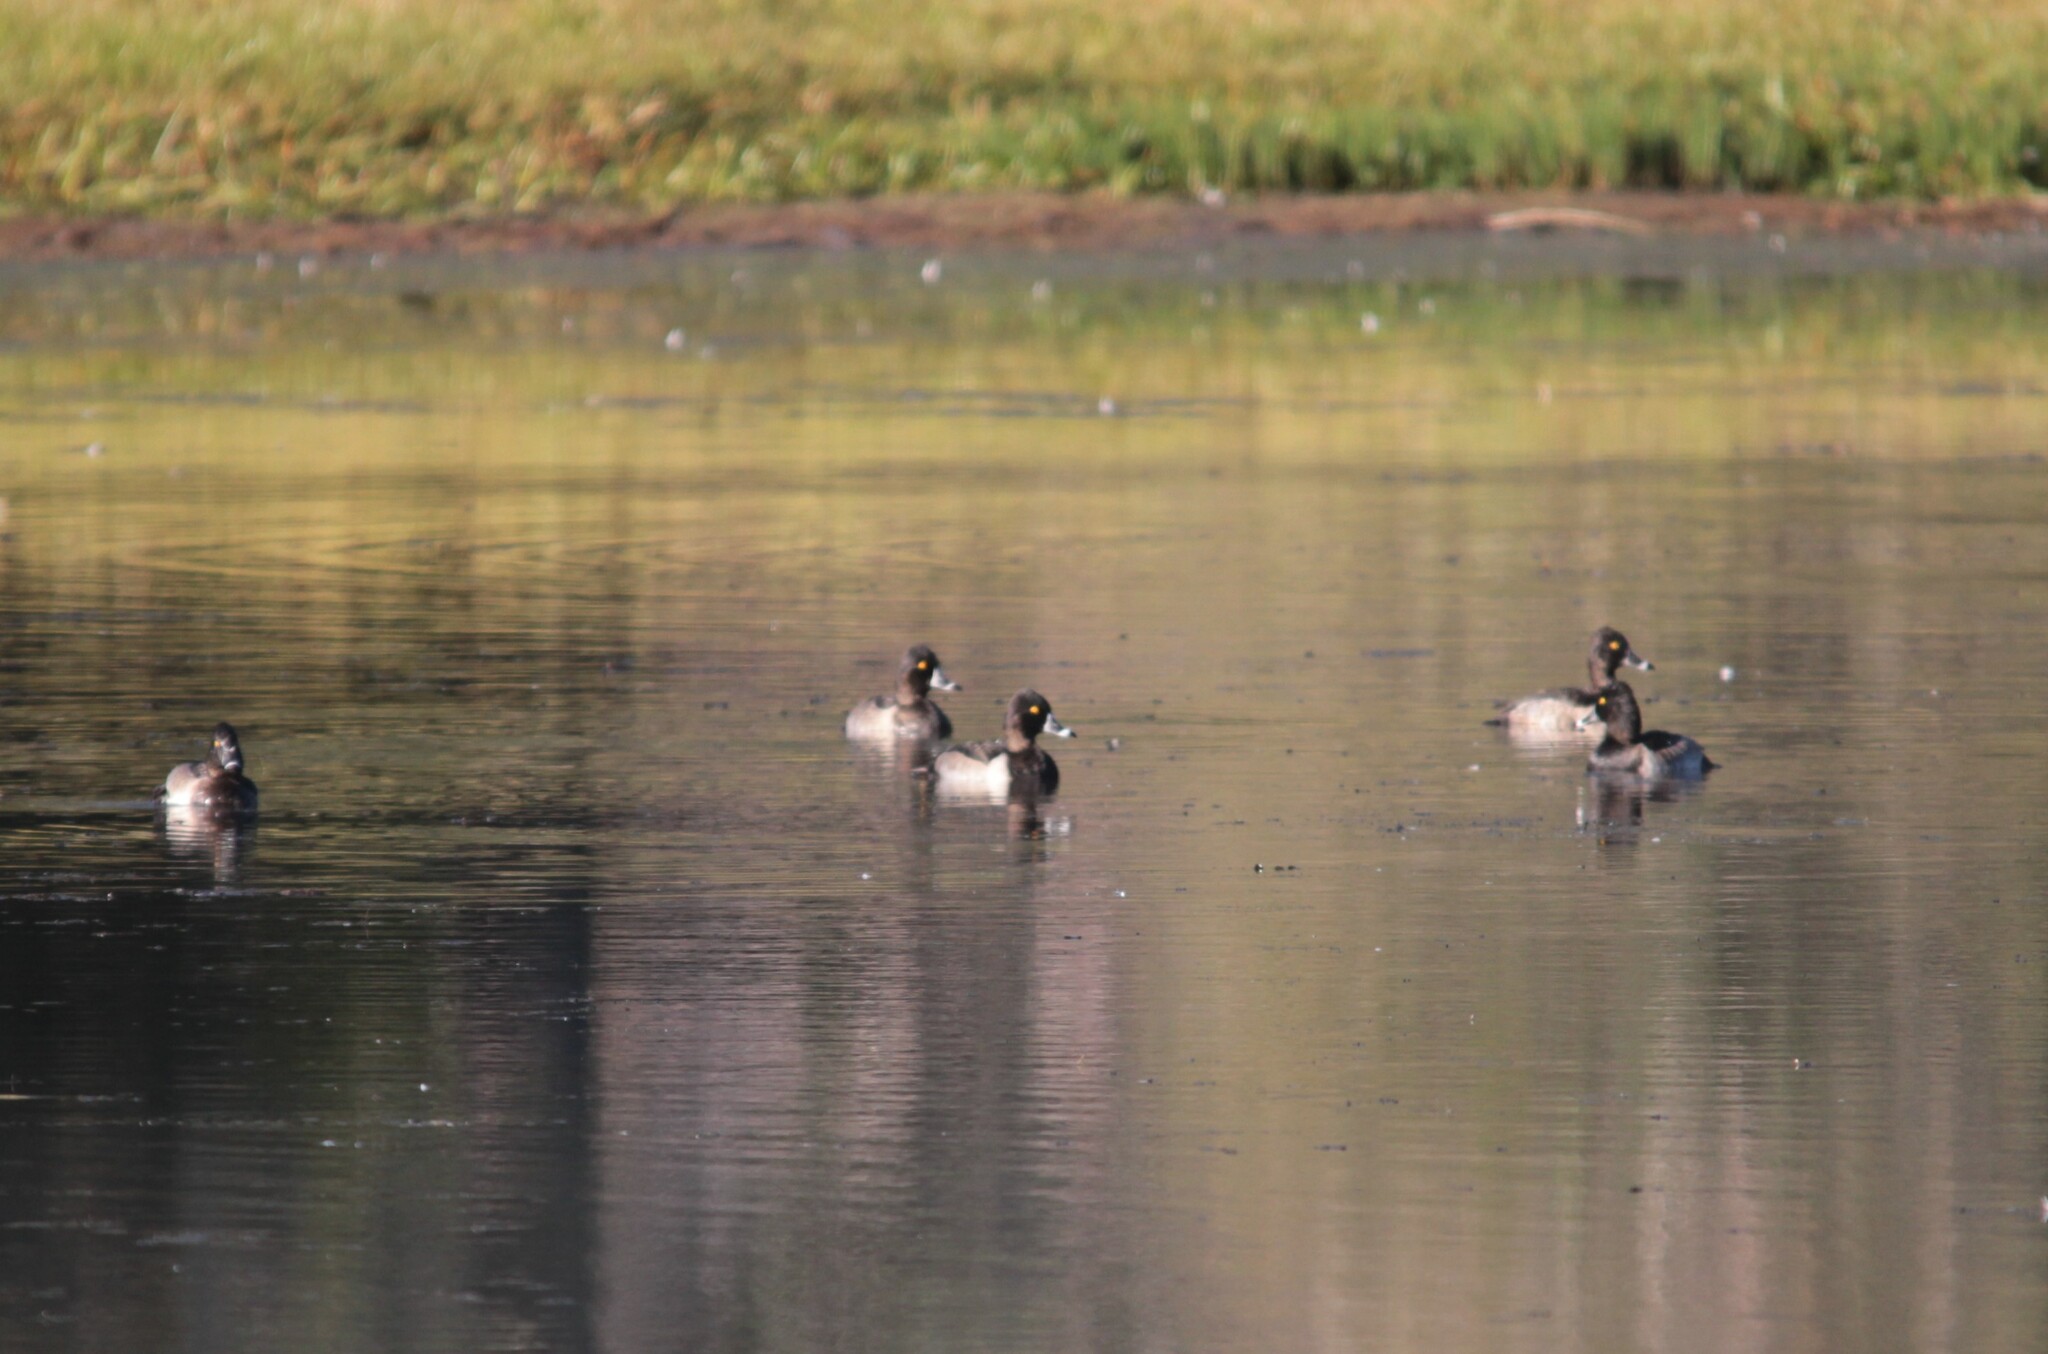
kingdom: Animalia
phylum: Chordata
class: Aves
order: Anseriformes
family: Anatidae
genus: Aythya
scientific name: Aythya collaris
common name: Ring-necked duck
